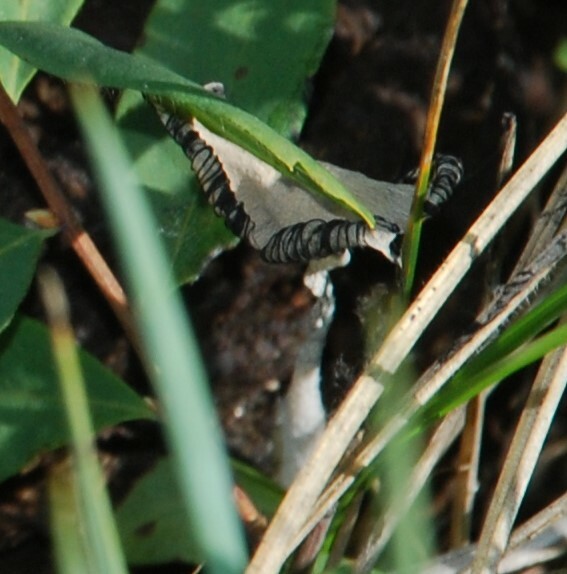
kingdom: Fungi
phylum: Basidiomycota
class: Agaricomycetes
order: Agaricales
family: Psathyrellaceae
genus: Coprinopsis
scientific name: Coprinopsis nivea
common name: Snowy inkcap
